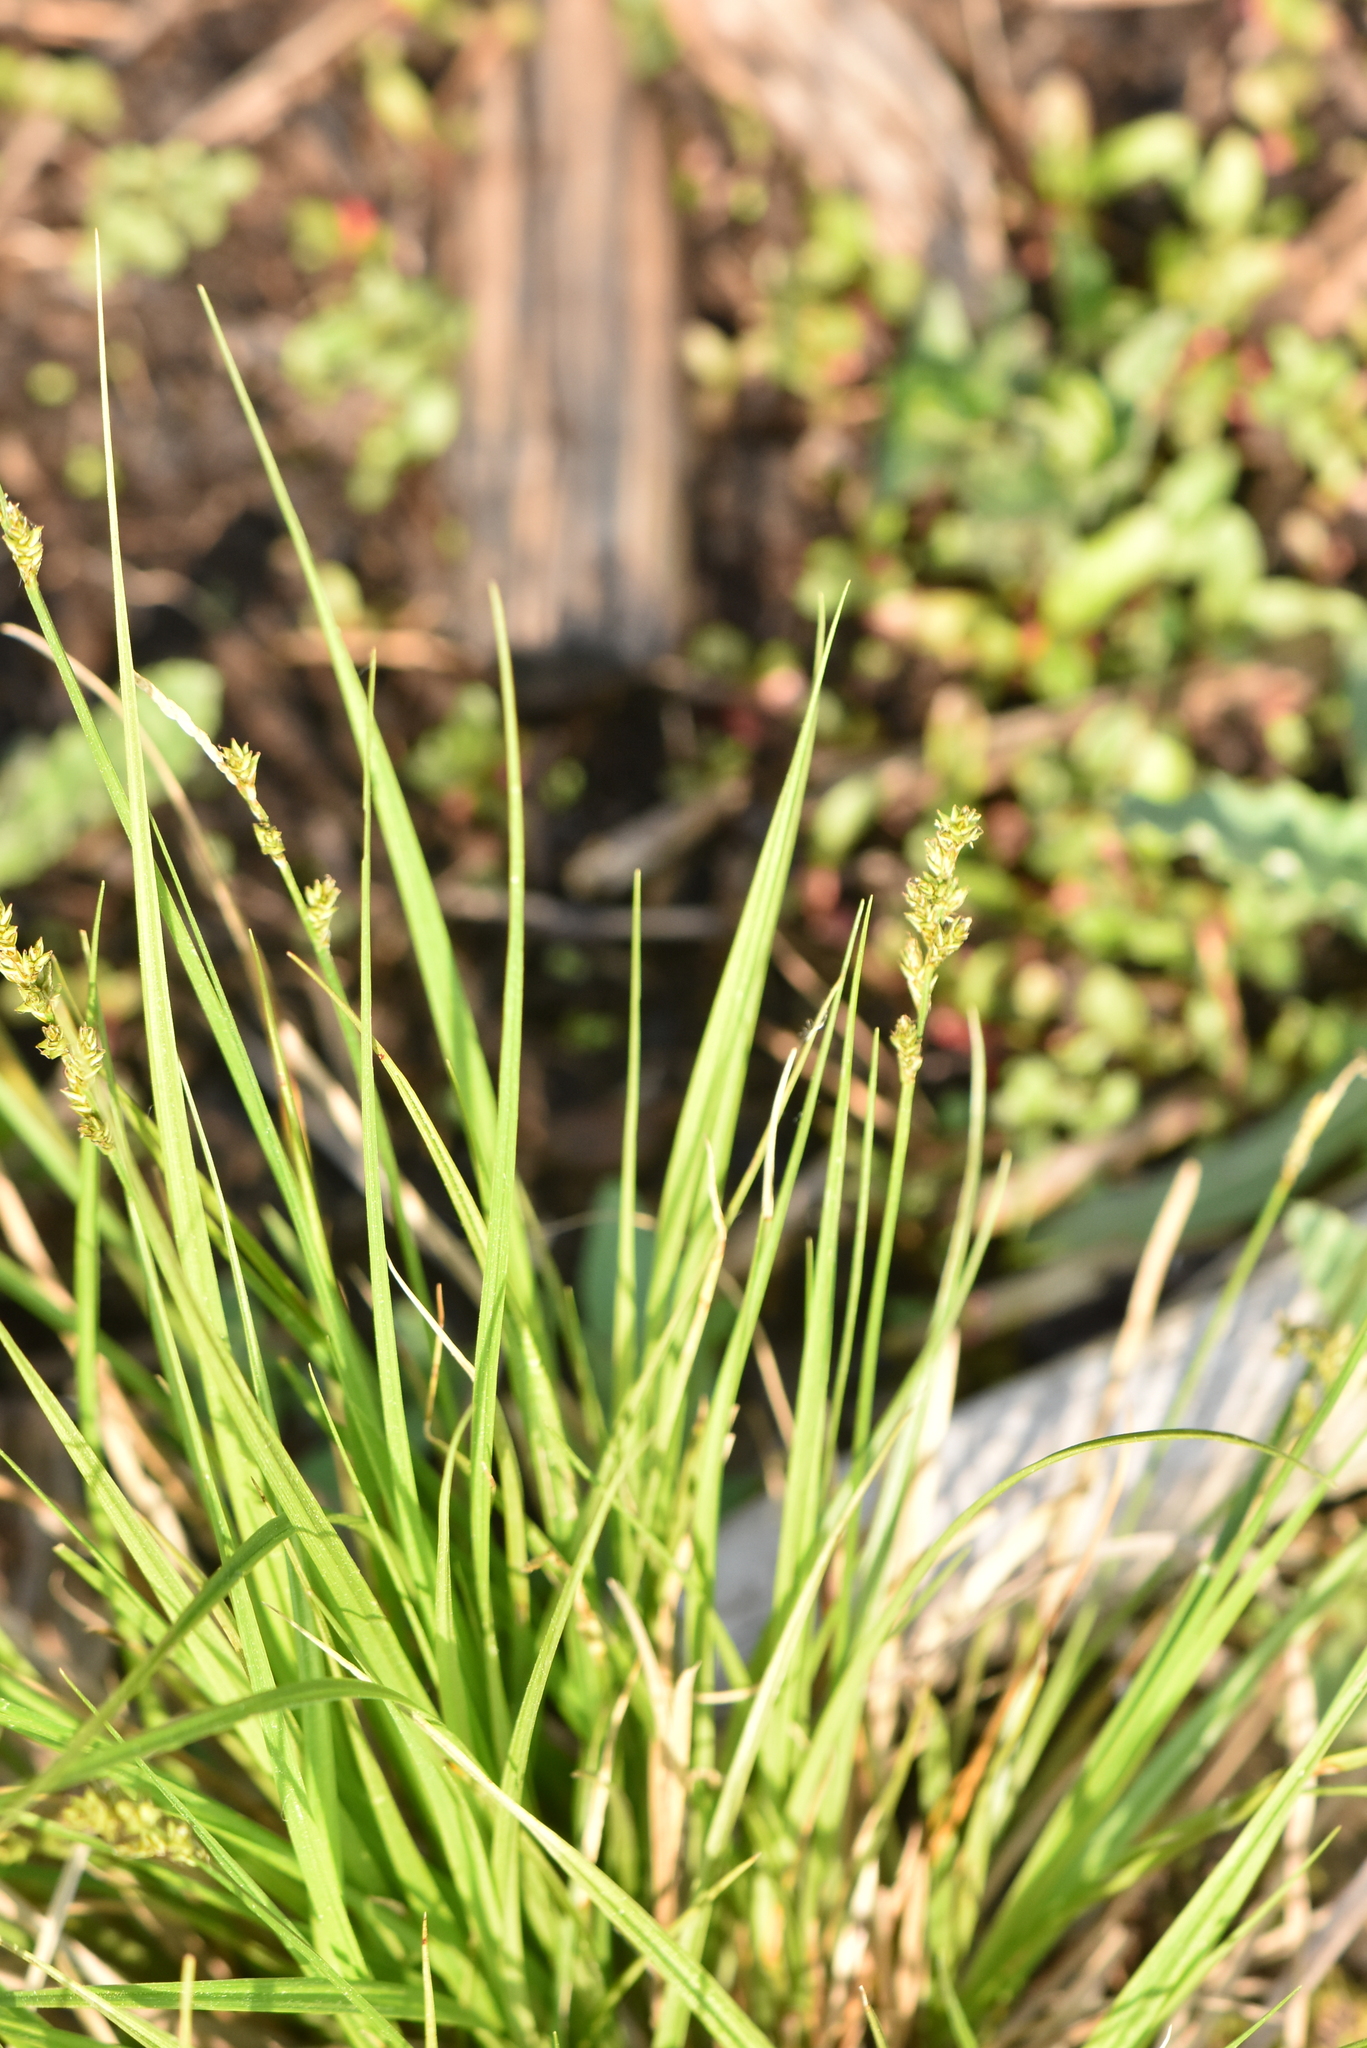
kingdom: Plantae
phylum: Tracheophyta
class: Liliopsida
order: Poales
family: Cyperaceae
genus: Carex
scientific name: Carex elongata
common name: Elongated sedge
